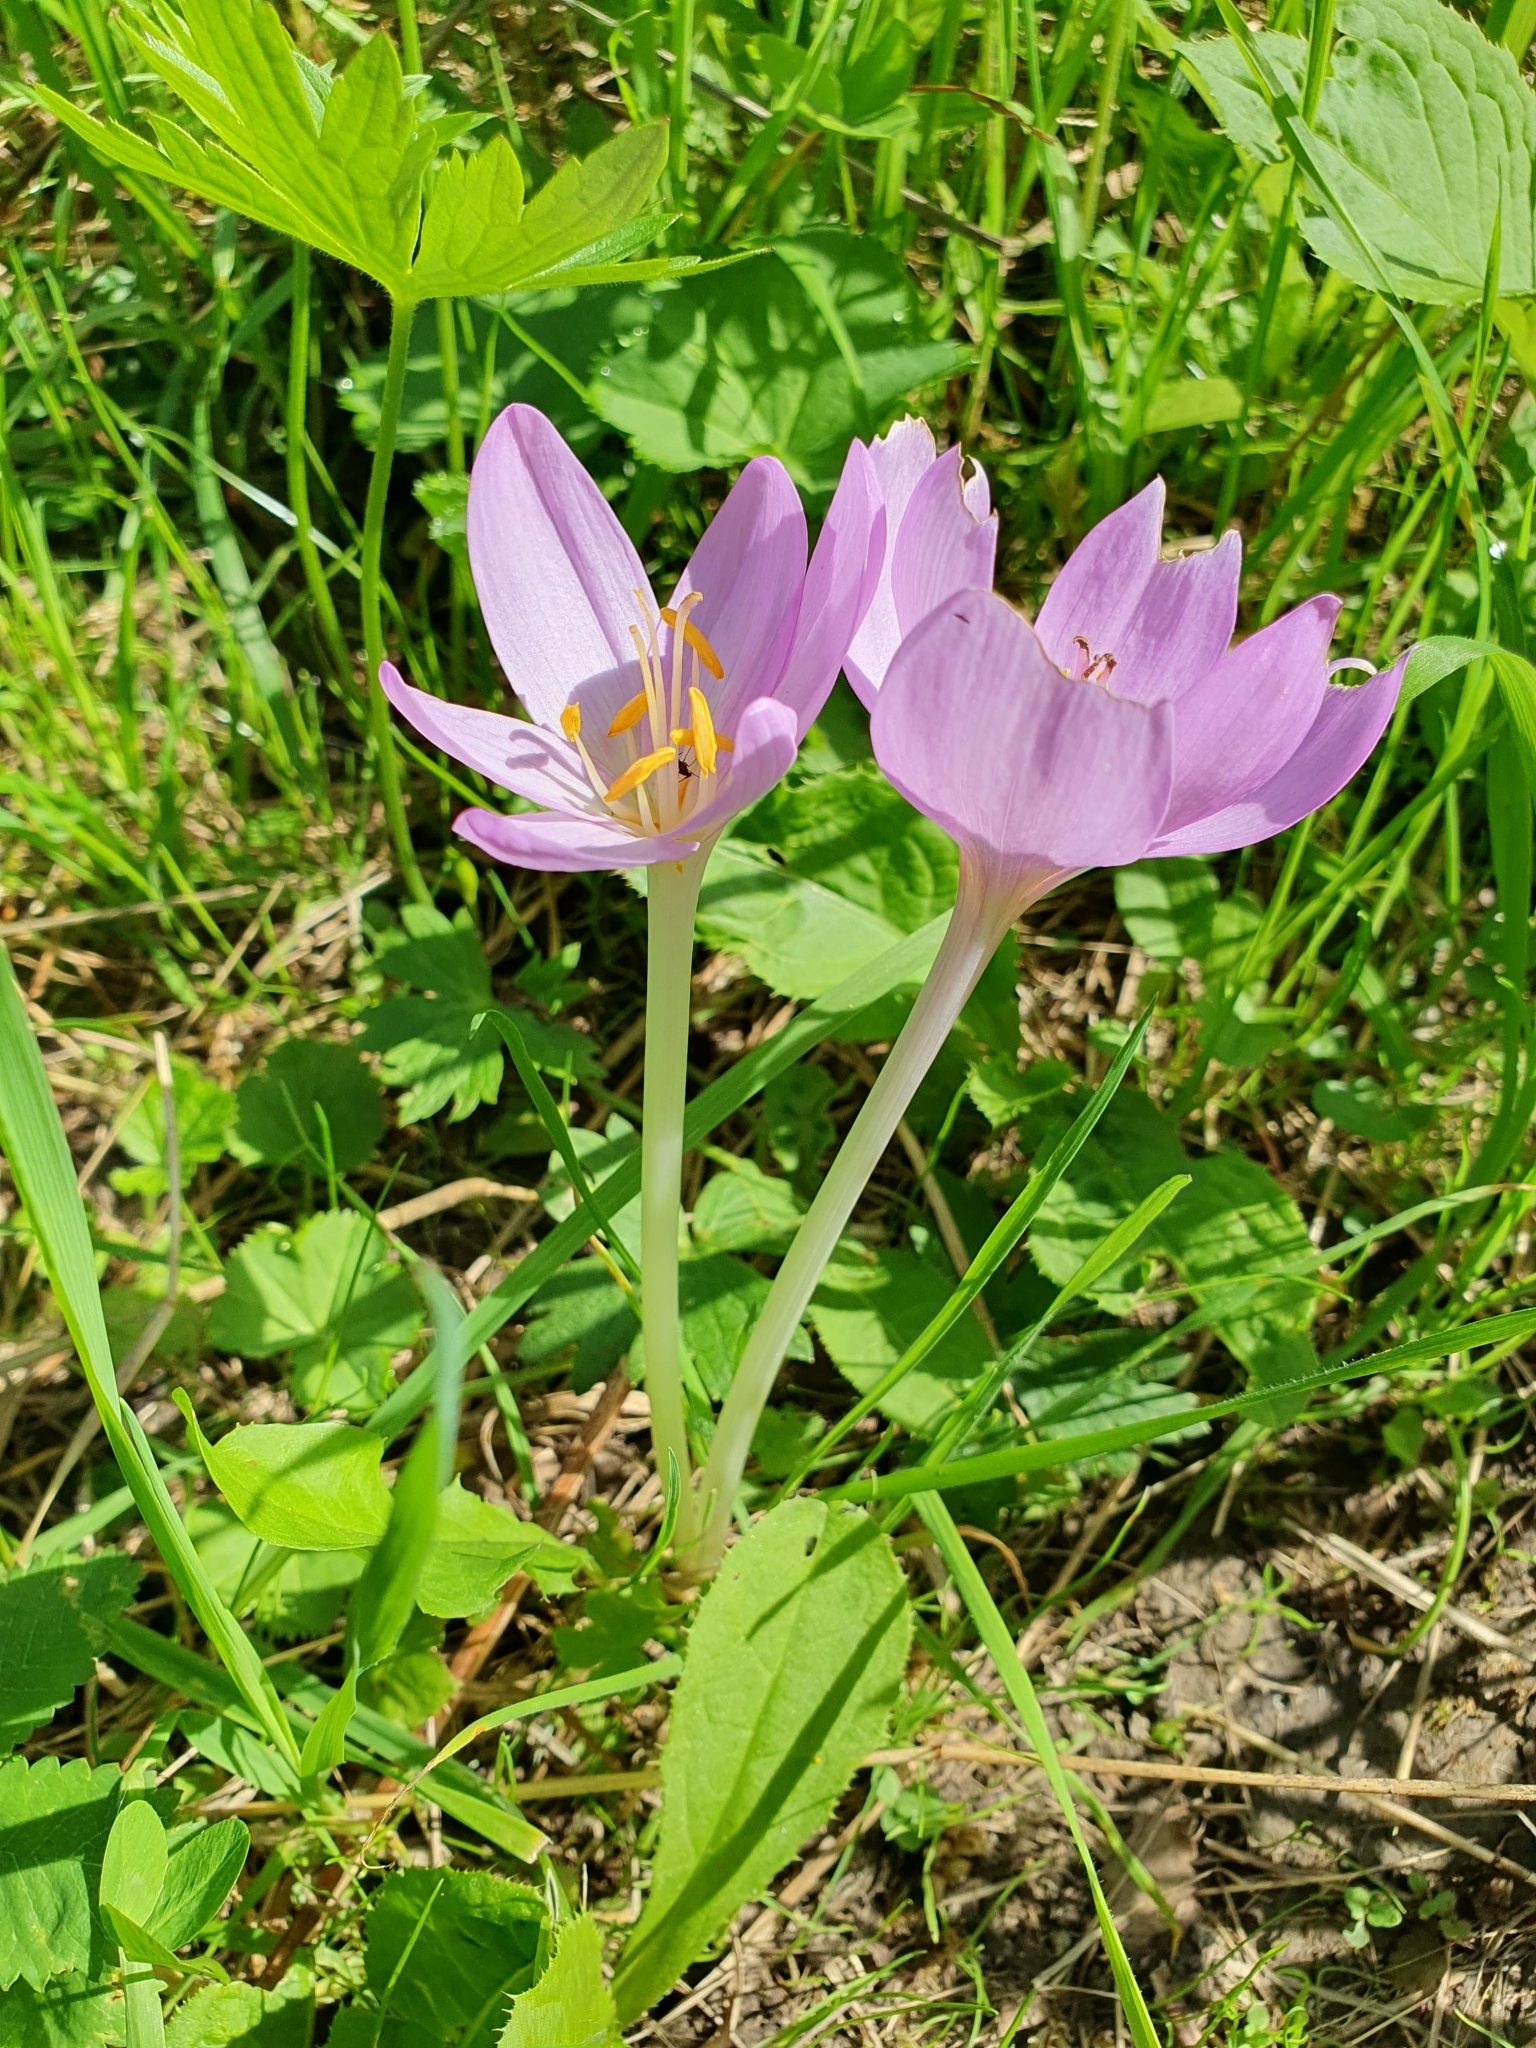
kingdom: Plantae
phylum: Tracheophyta
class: Liliopsida
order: Liliales
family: Colchicaceae
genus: Colchicum
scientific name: Colchicum autumnale
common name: Autumn crocus
